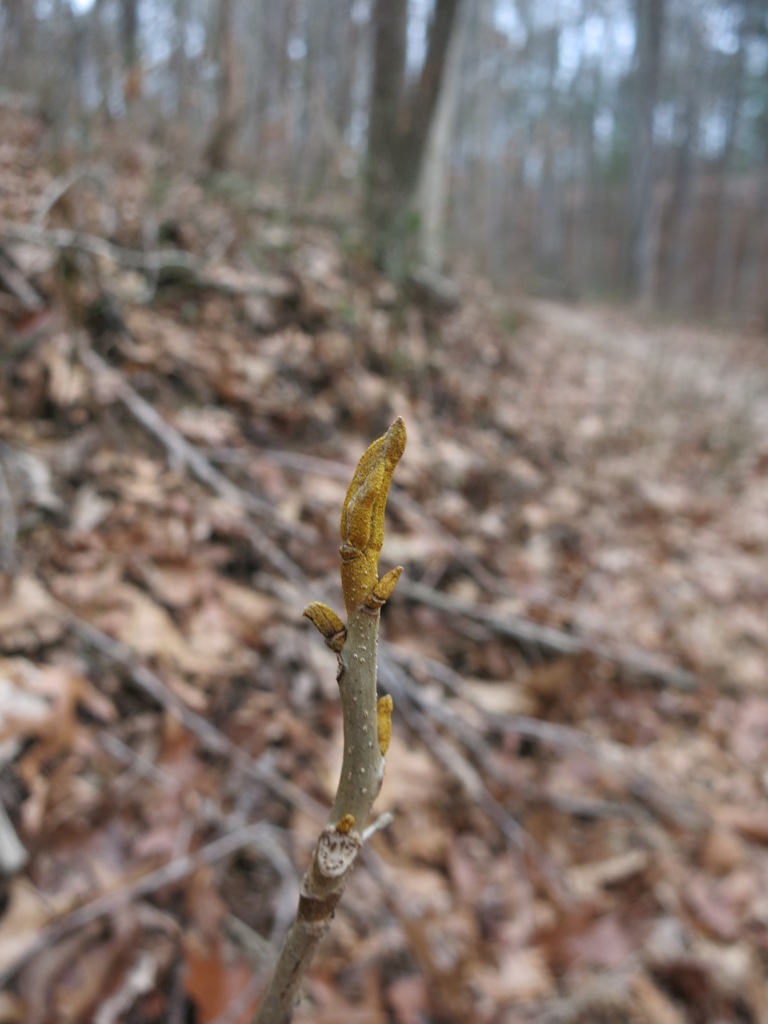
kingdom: Plantae
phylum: Tracheophyta
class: Magnoliopsida
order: Fagales
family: Juglandaceae
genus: Carya
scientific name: Carya cordiformis
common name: Bitternut hickory
